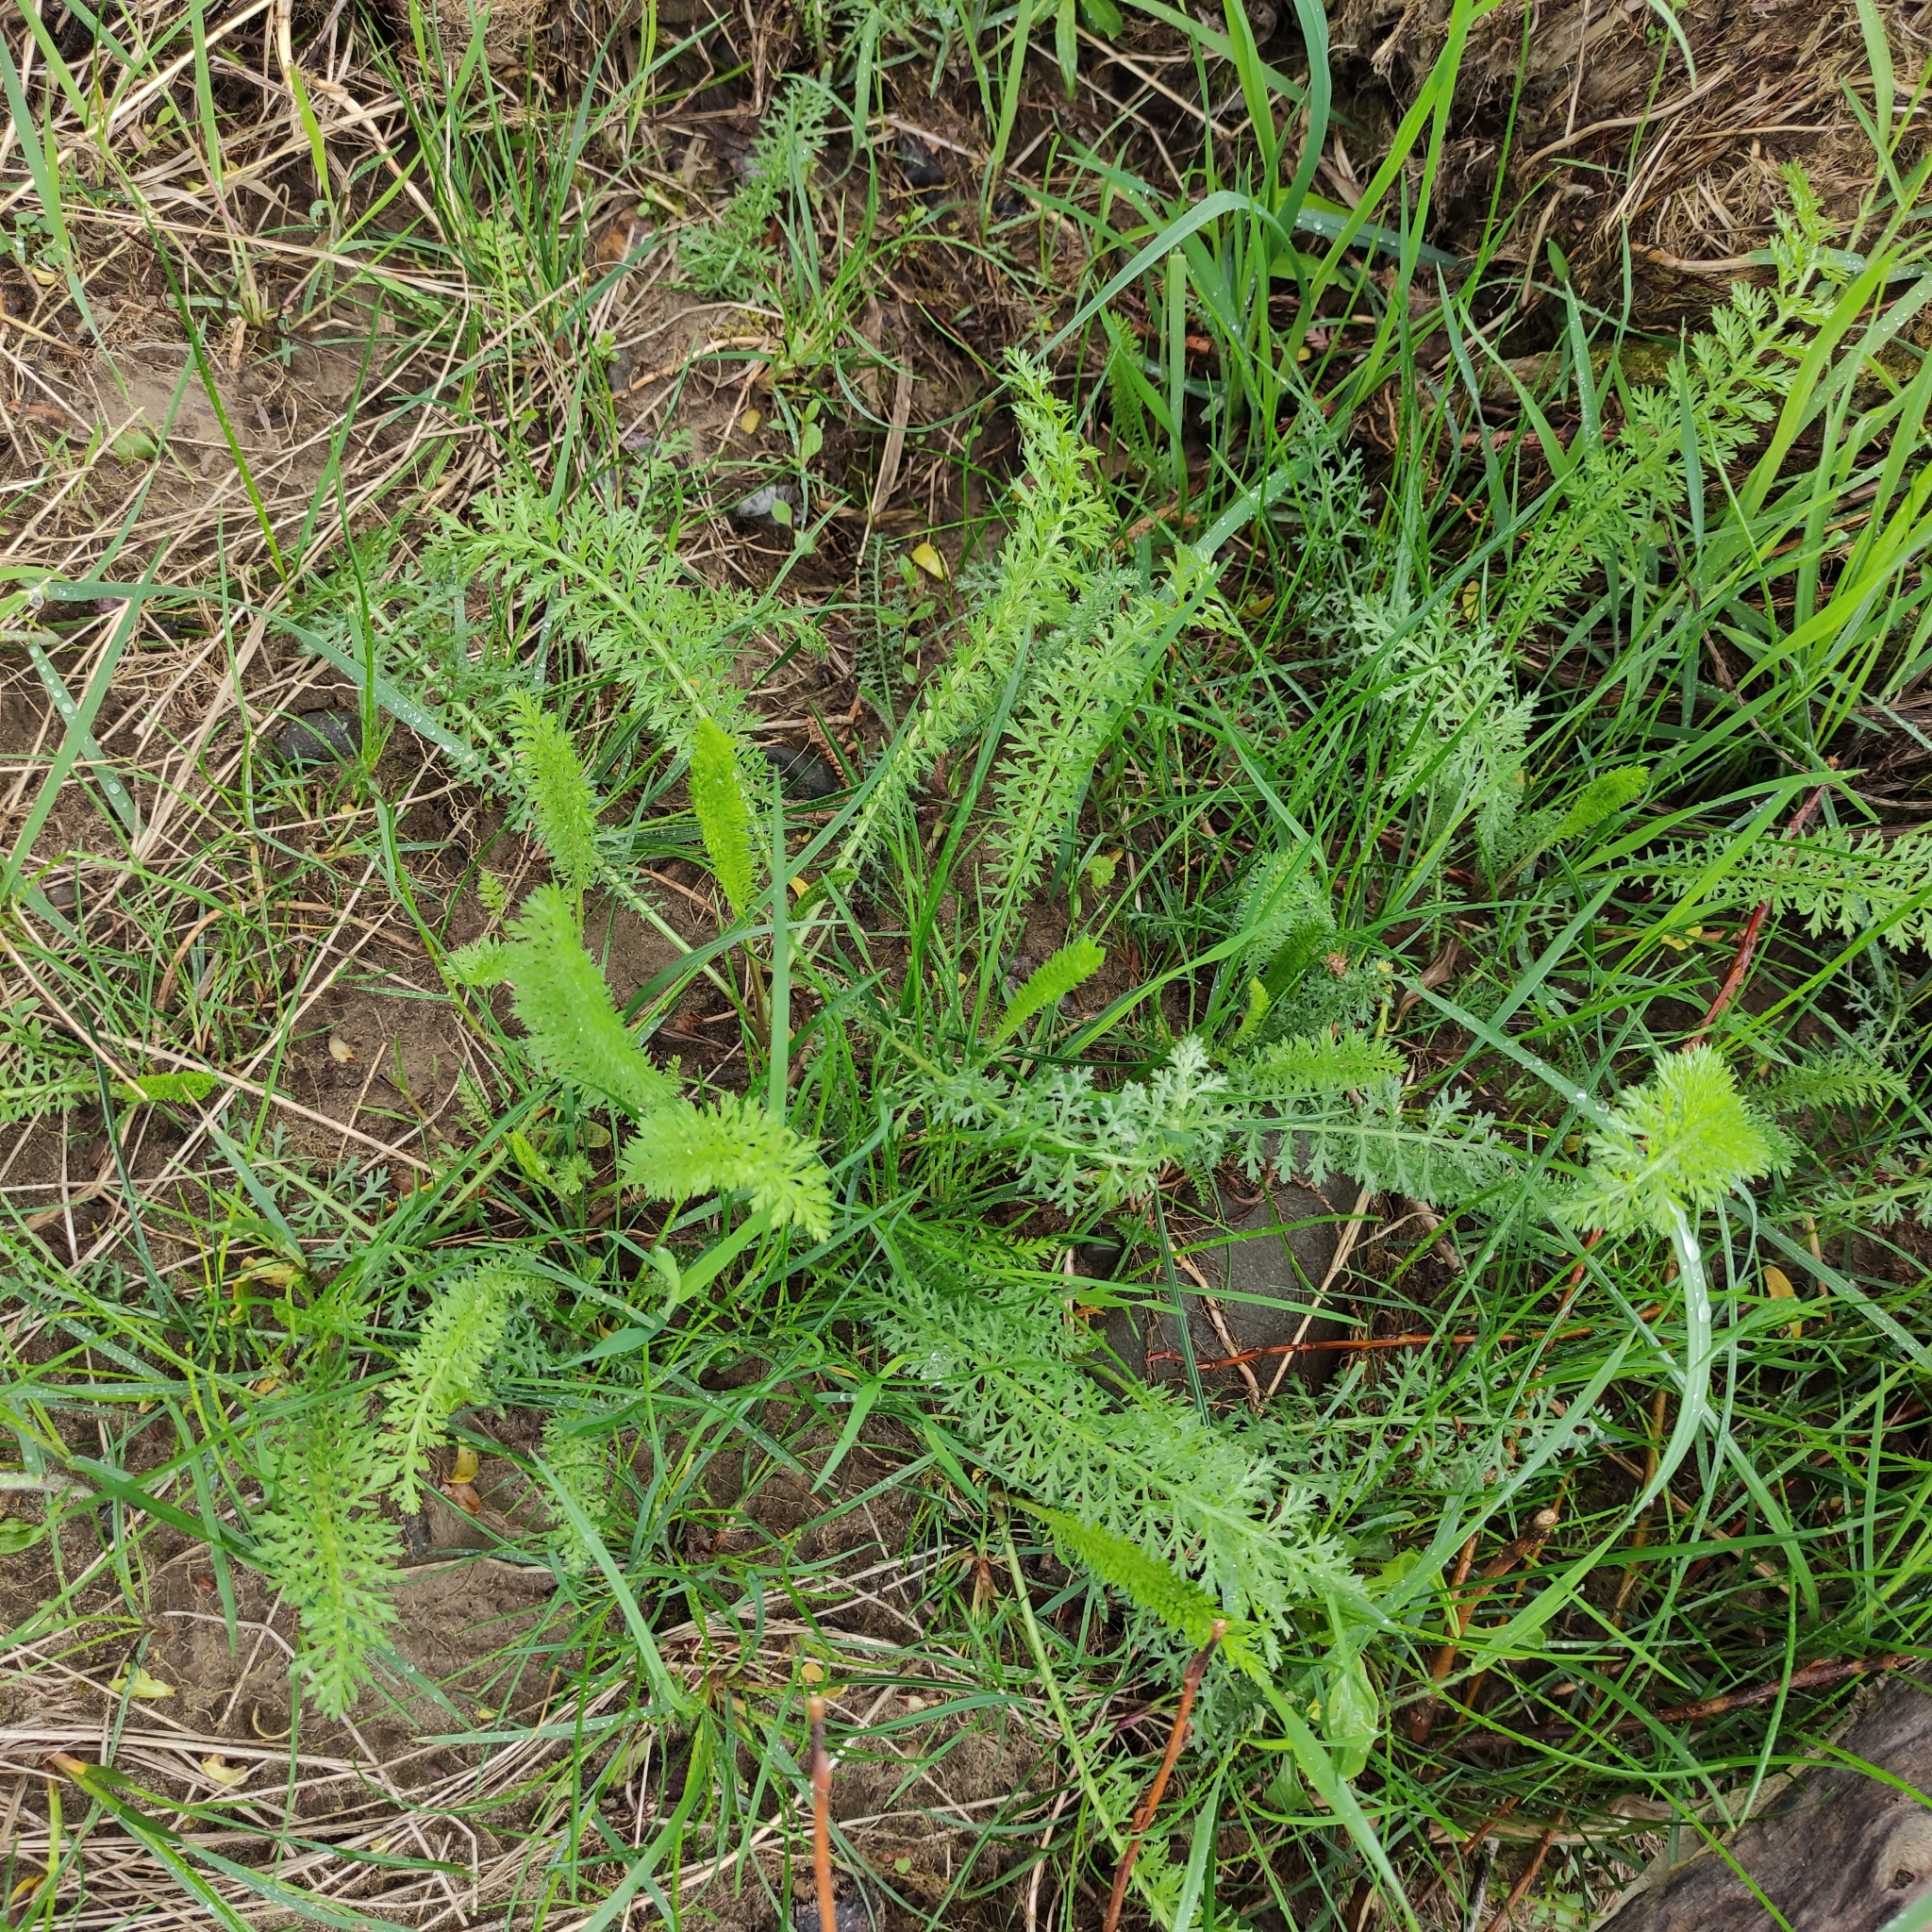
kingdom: Plantae
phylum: Tracheophyta
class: Magnoliopsida
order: Asterales
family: Asteraceae
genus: Achillea
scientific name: Achillea millefolium
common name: Yarrow
